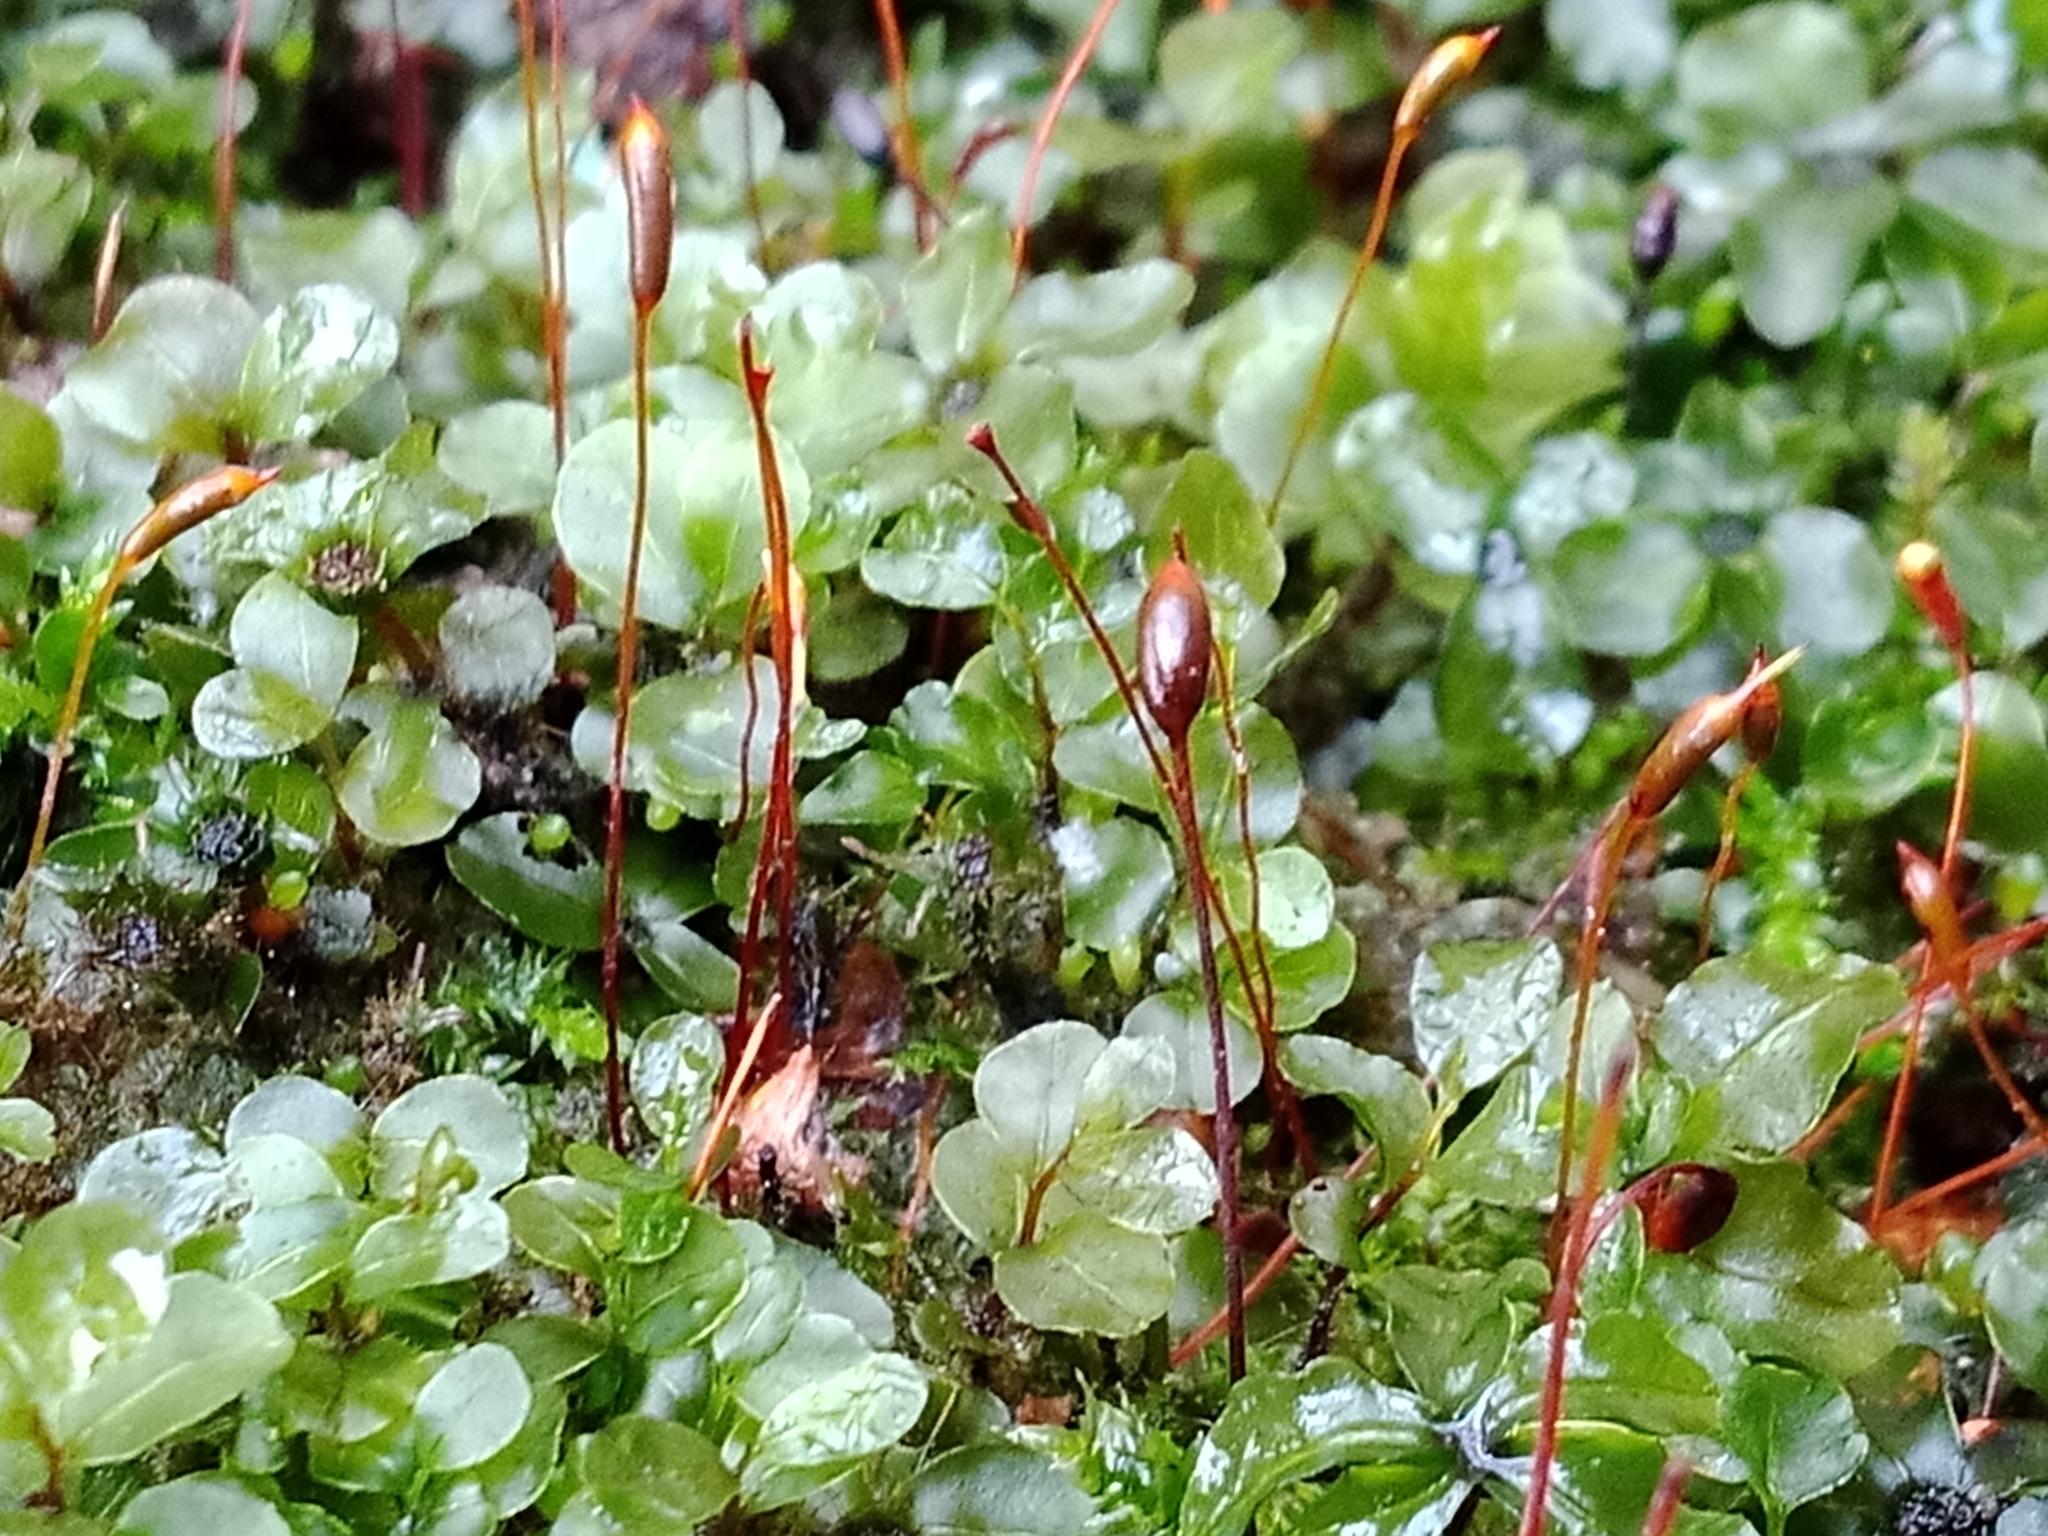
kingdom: Plantae
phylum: Bryophyta
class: Bryopsida
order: Bryales
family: Mniaceae
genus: Rhizomnium
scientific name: Rhizomnium punctatum
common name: Dotted leafy moss
